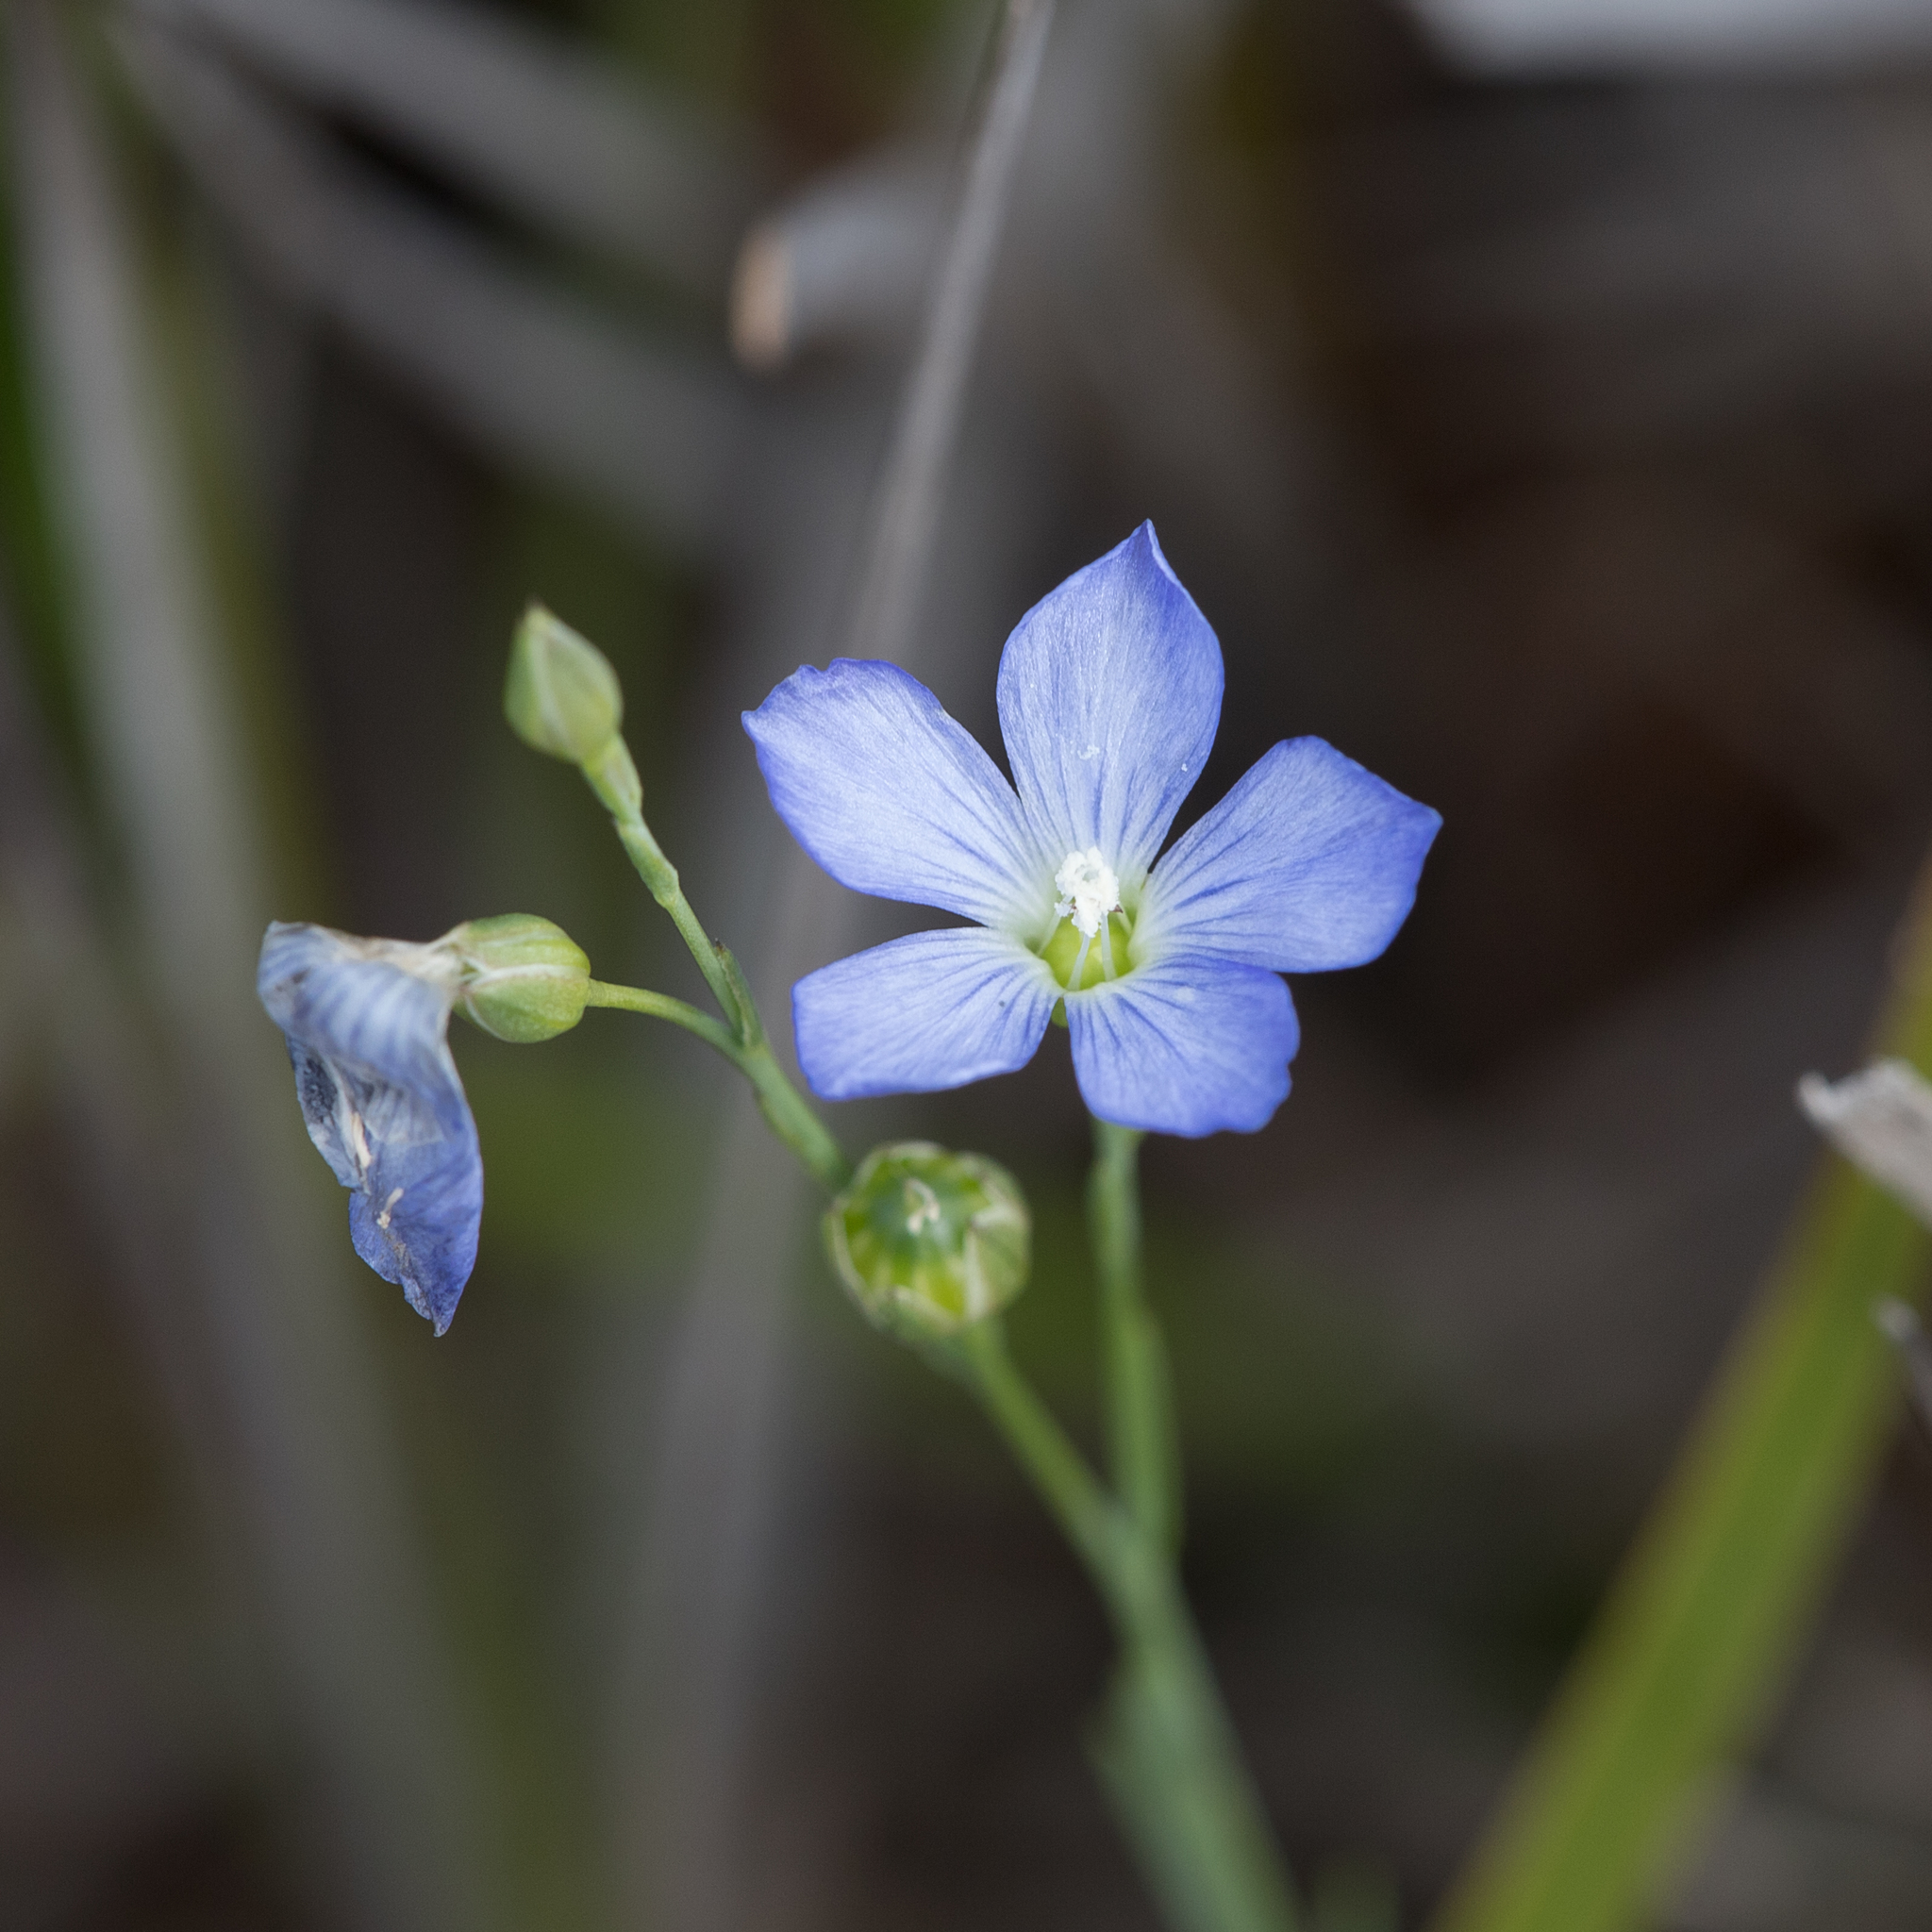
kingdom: Plantae
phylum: Tracheophyta
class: Magnoliopsida
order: Malpighiales
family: Linaceae
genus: Linum
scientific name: Linum marginale
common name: Wild flax
